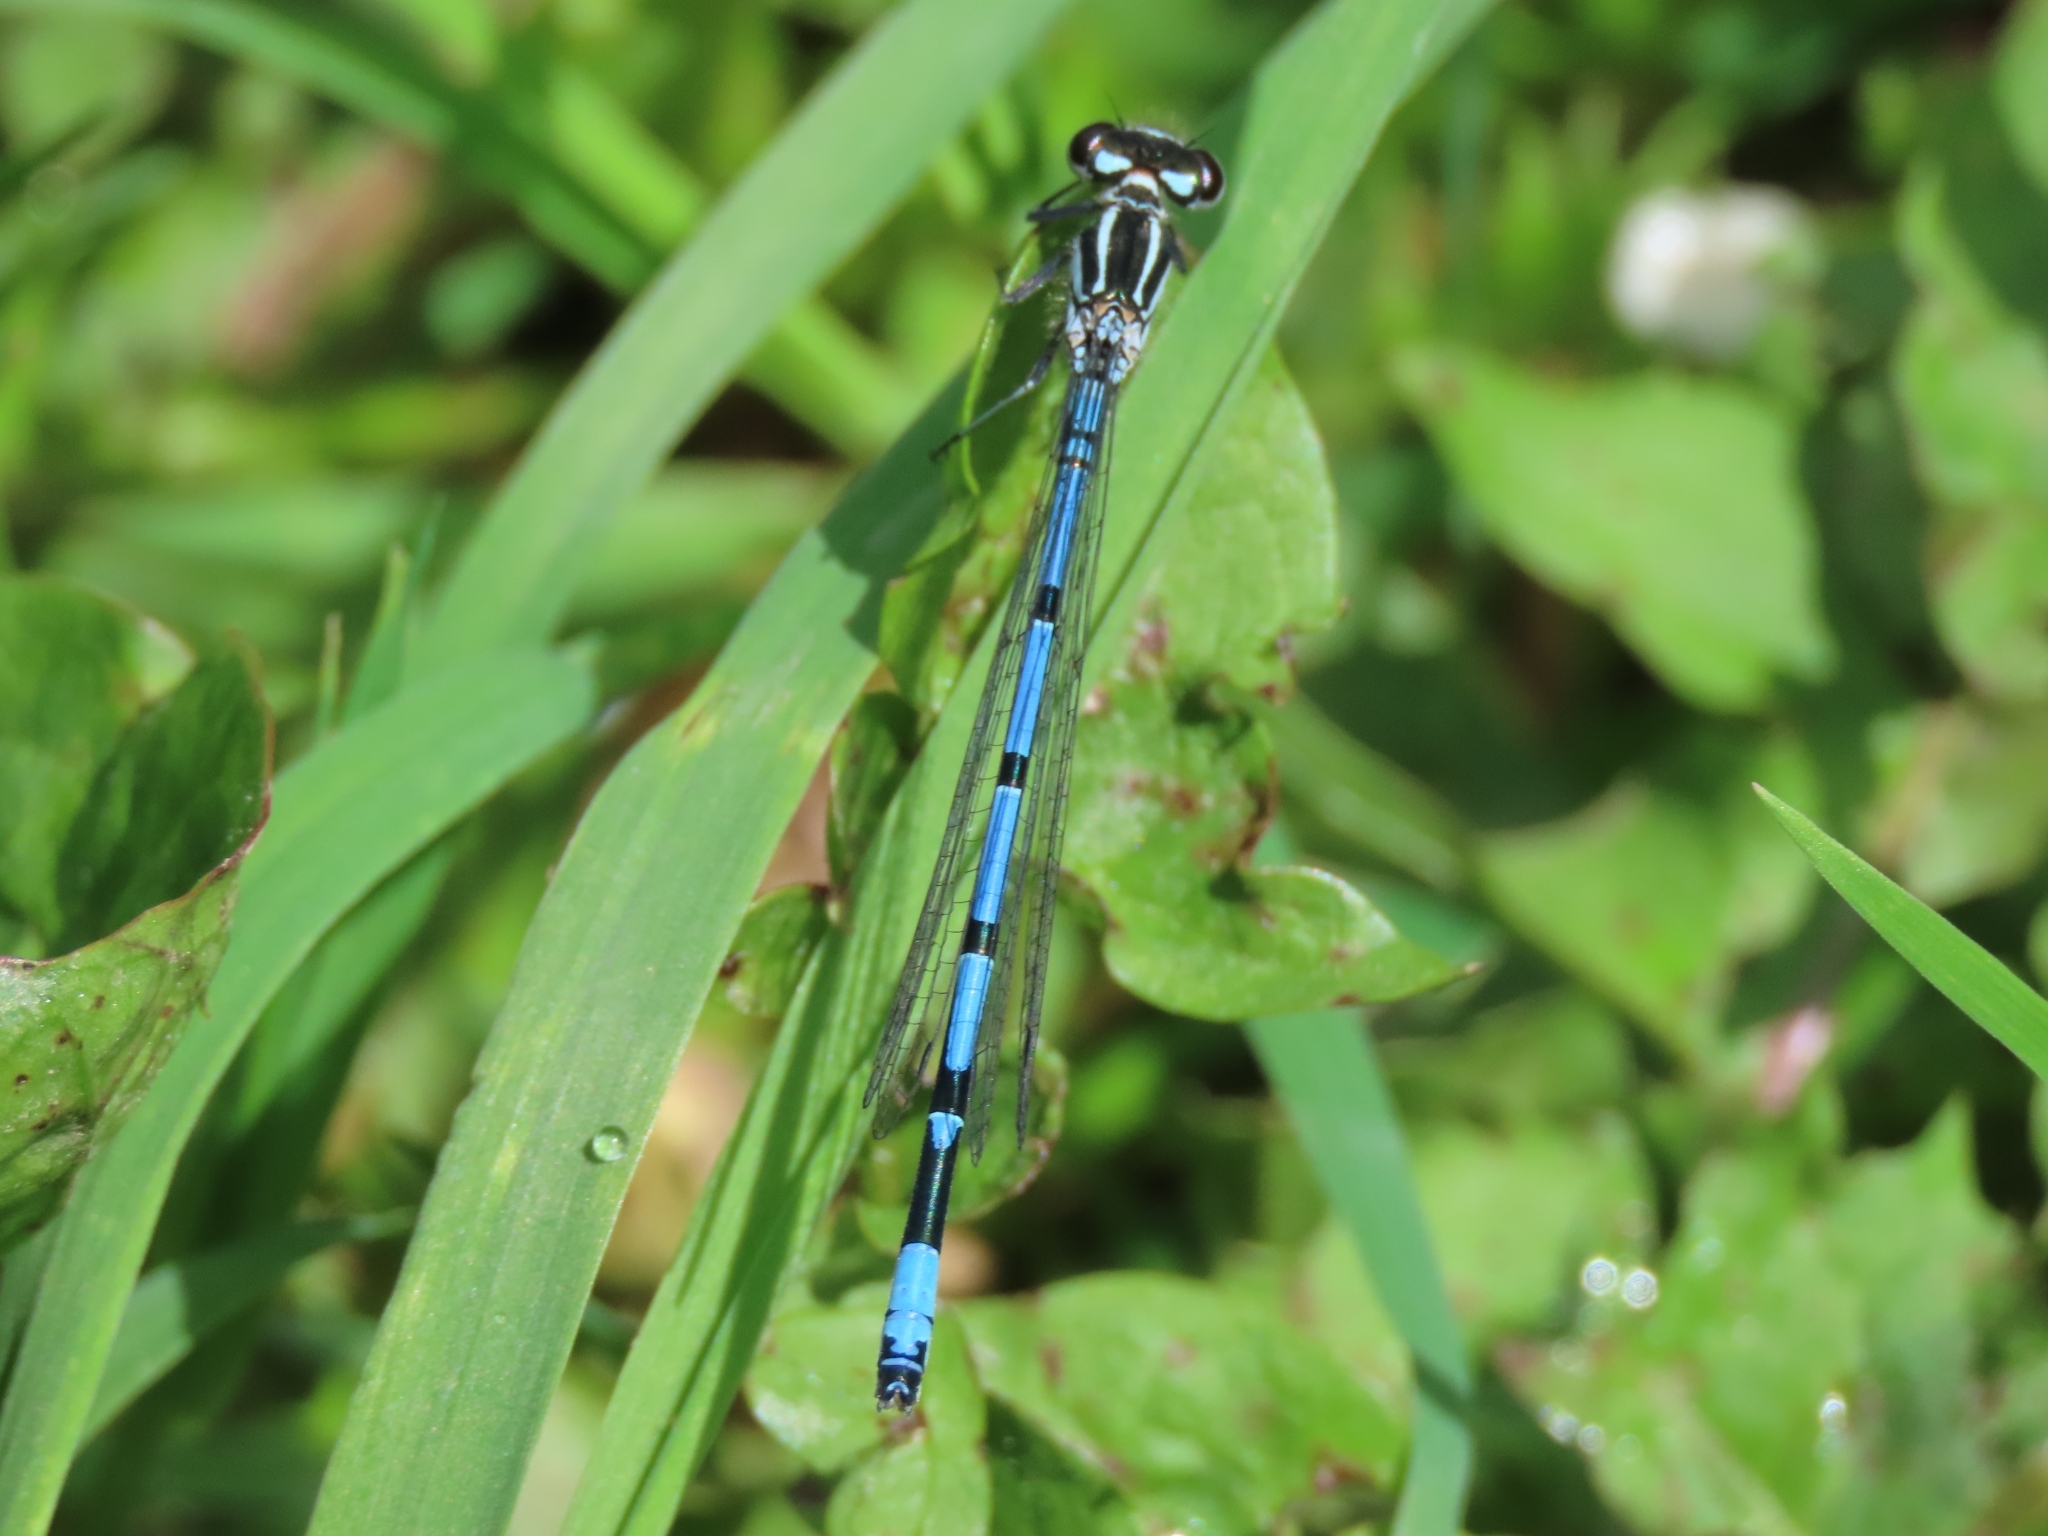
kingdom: Animalia
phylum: Arthropoda
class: Insecta
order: Odonata
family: Coenagrionidae
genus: Coenagrion
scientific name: Coenagrion puella
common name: Azure damselfly
